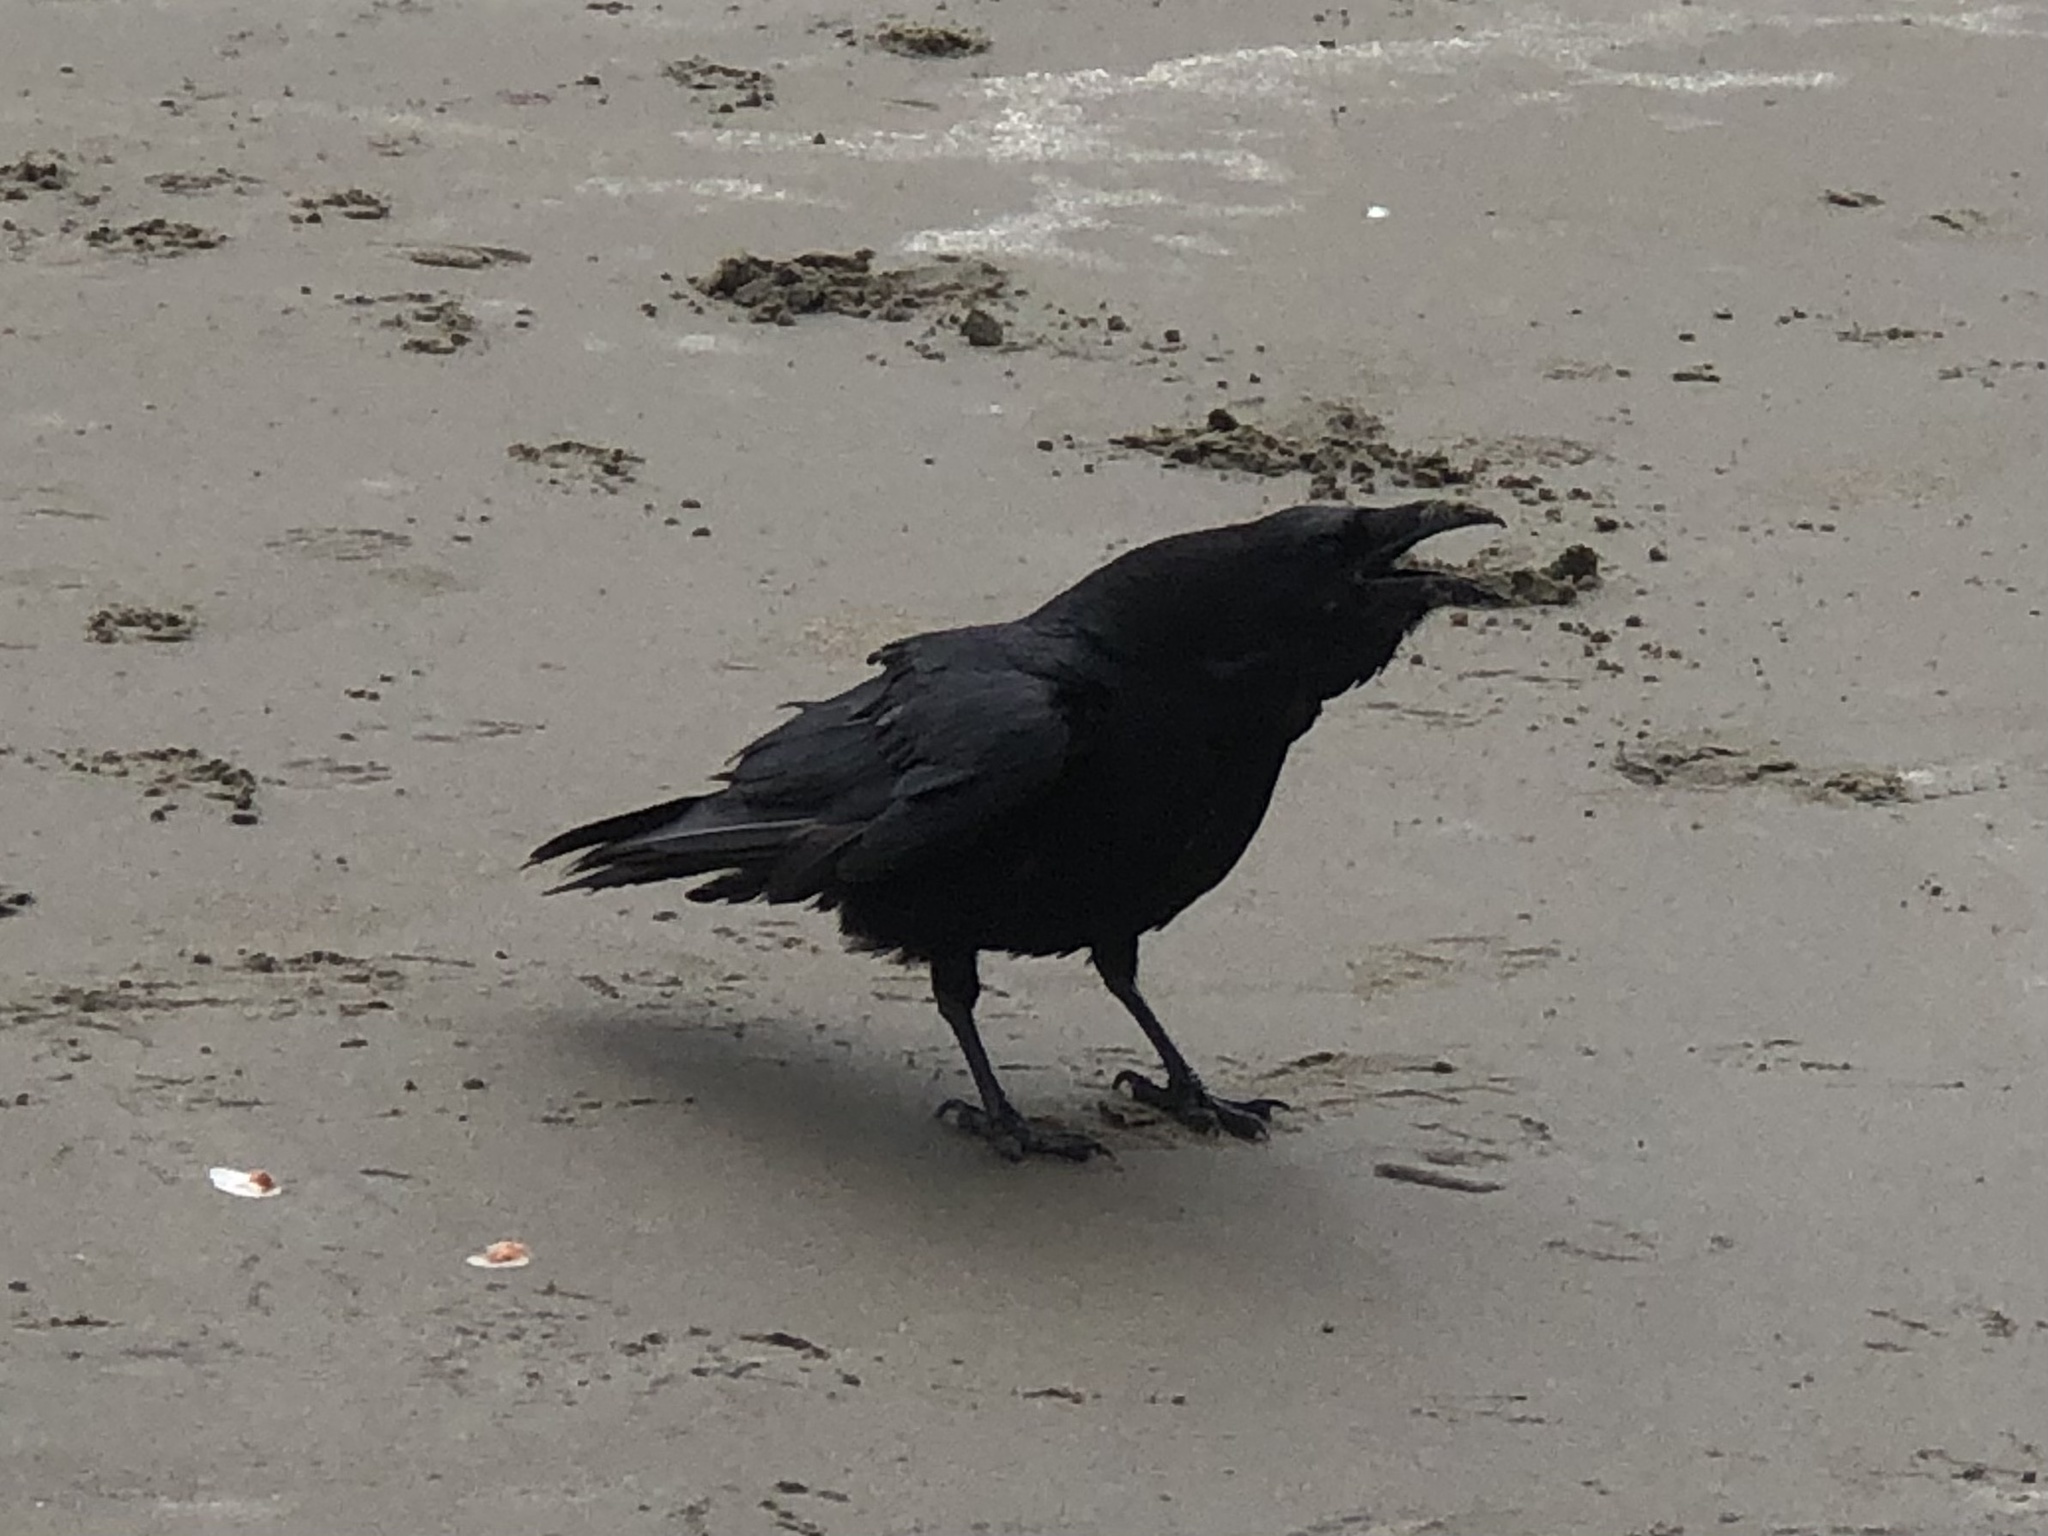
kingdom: Animalia
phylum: Chordata
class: Aves
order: Passeriformes
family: Corvidae
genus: Corvus
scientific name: Corvus corax
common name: Common raven
